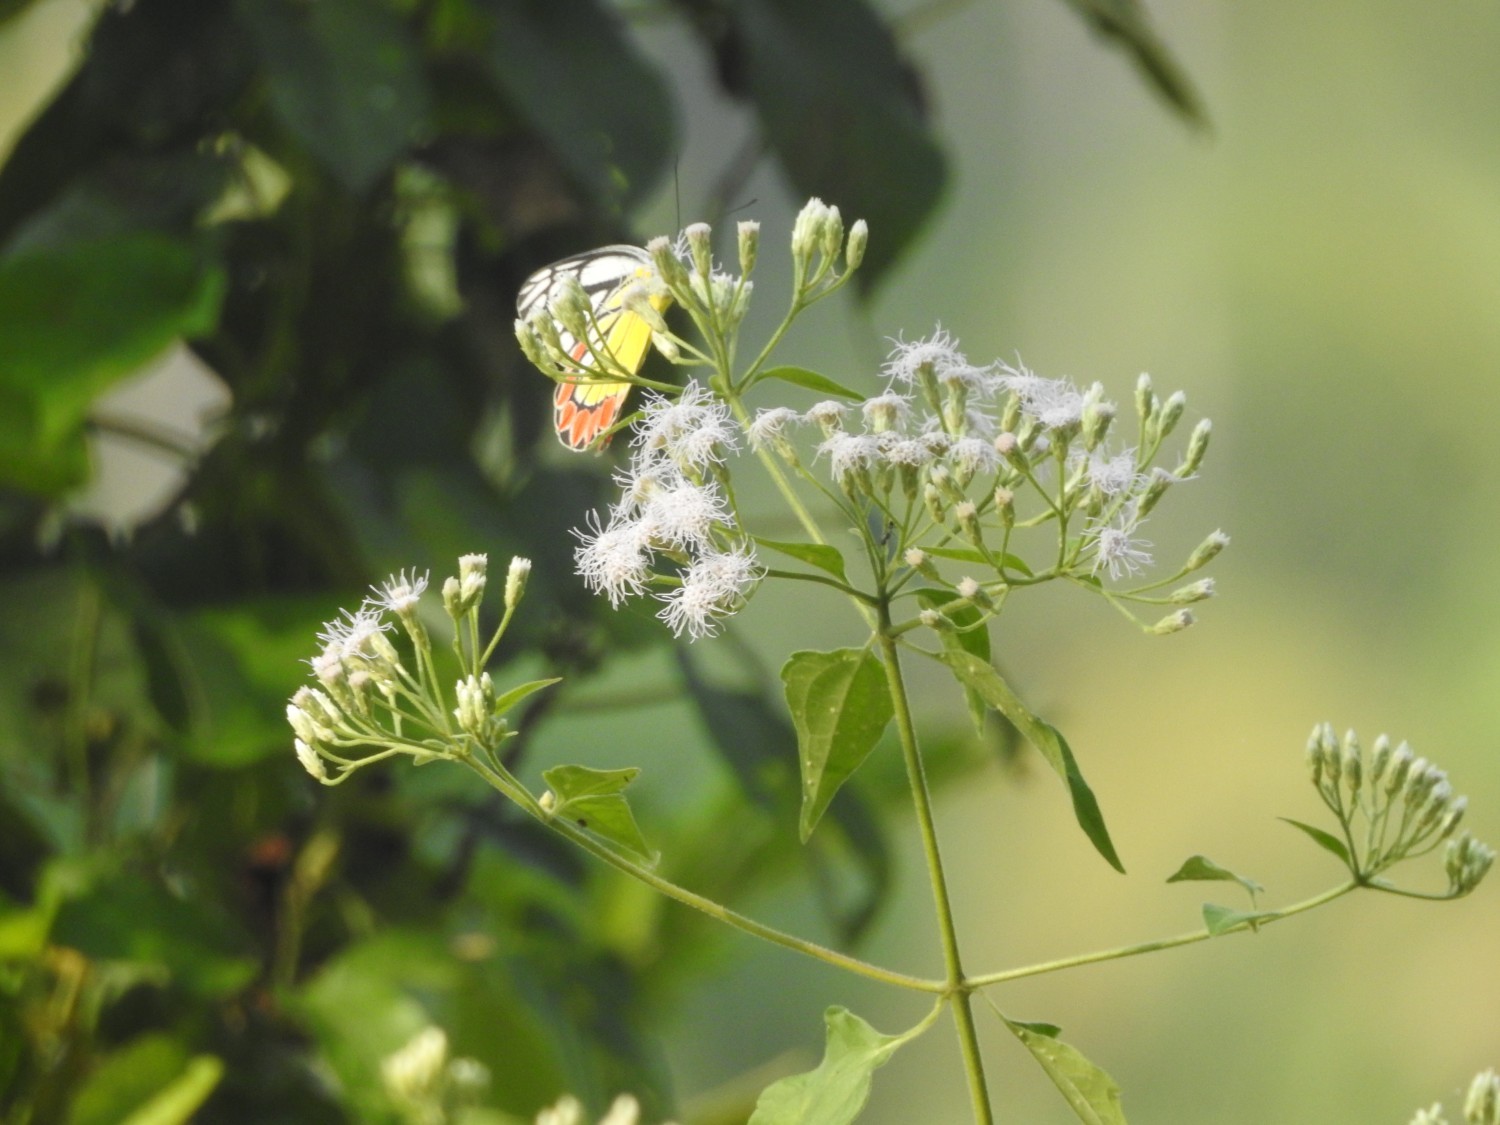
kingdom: Animalia
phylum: Arthropoda
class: Insecta
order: Lepidoptera
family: Pieridae
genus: Delias
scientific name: Delias eucharis
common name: Common jezebel
